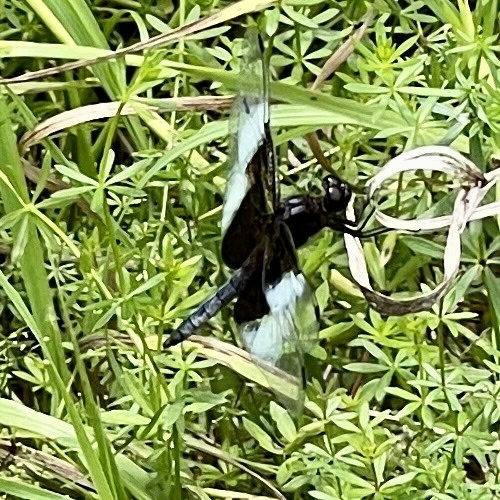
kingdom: Animalia
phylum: Arthropoda
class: Insecta
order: Odonata
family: Libellulidae
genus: Libellula
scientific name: Libellula luctuosa
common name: Widow skimmer
